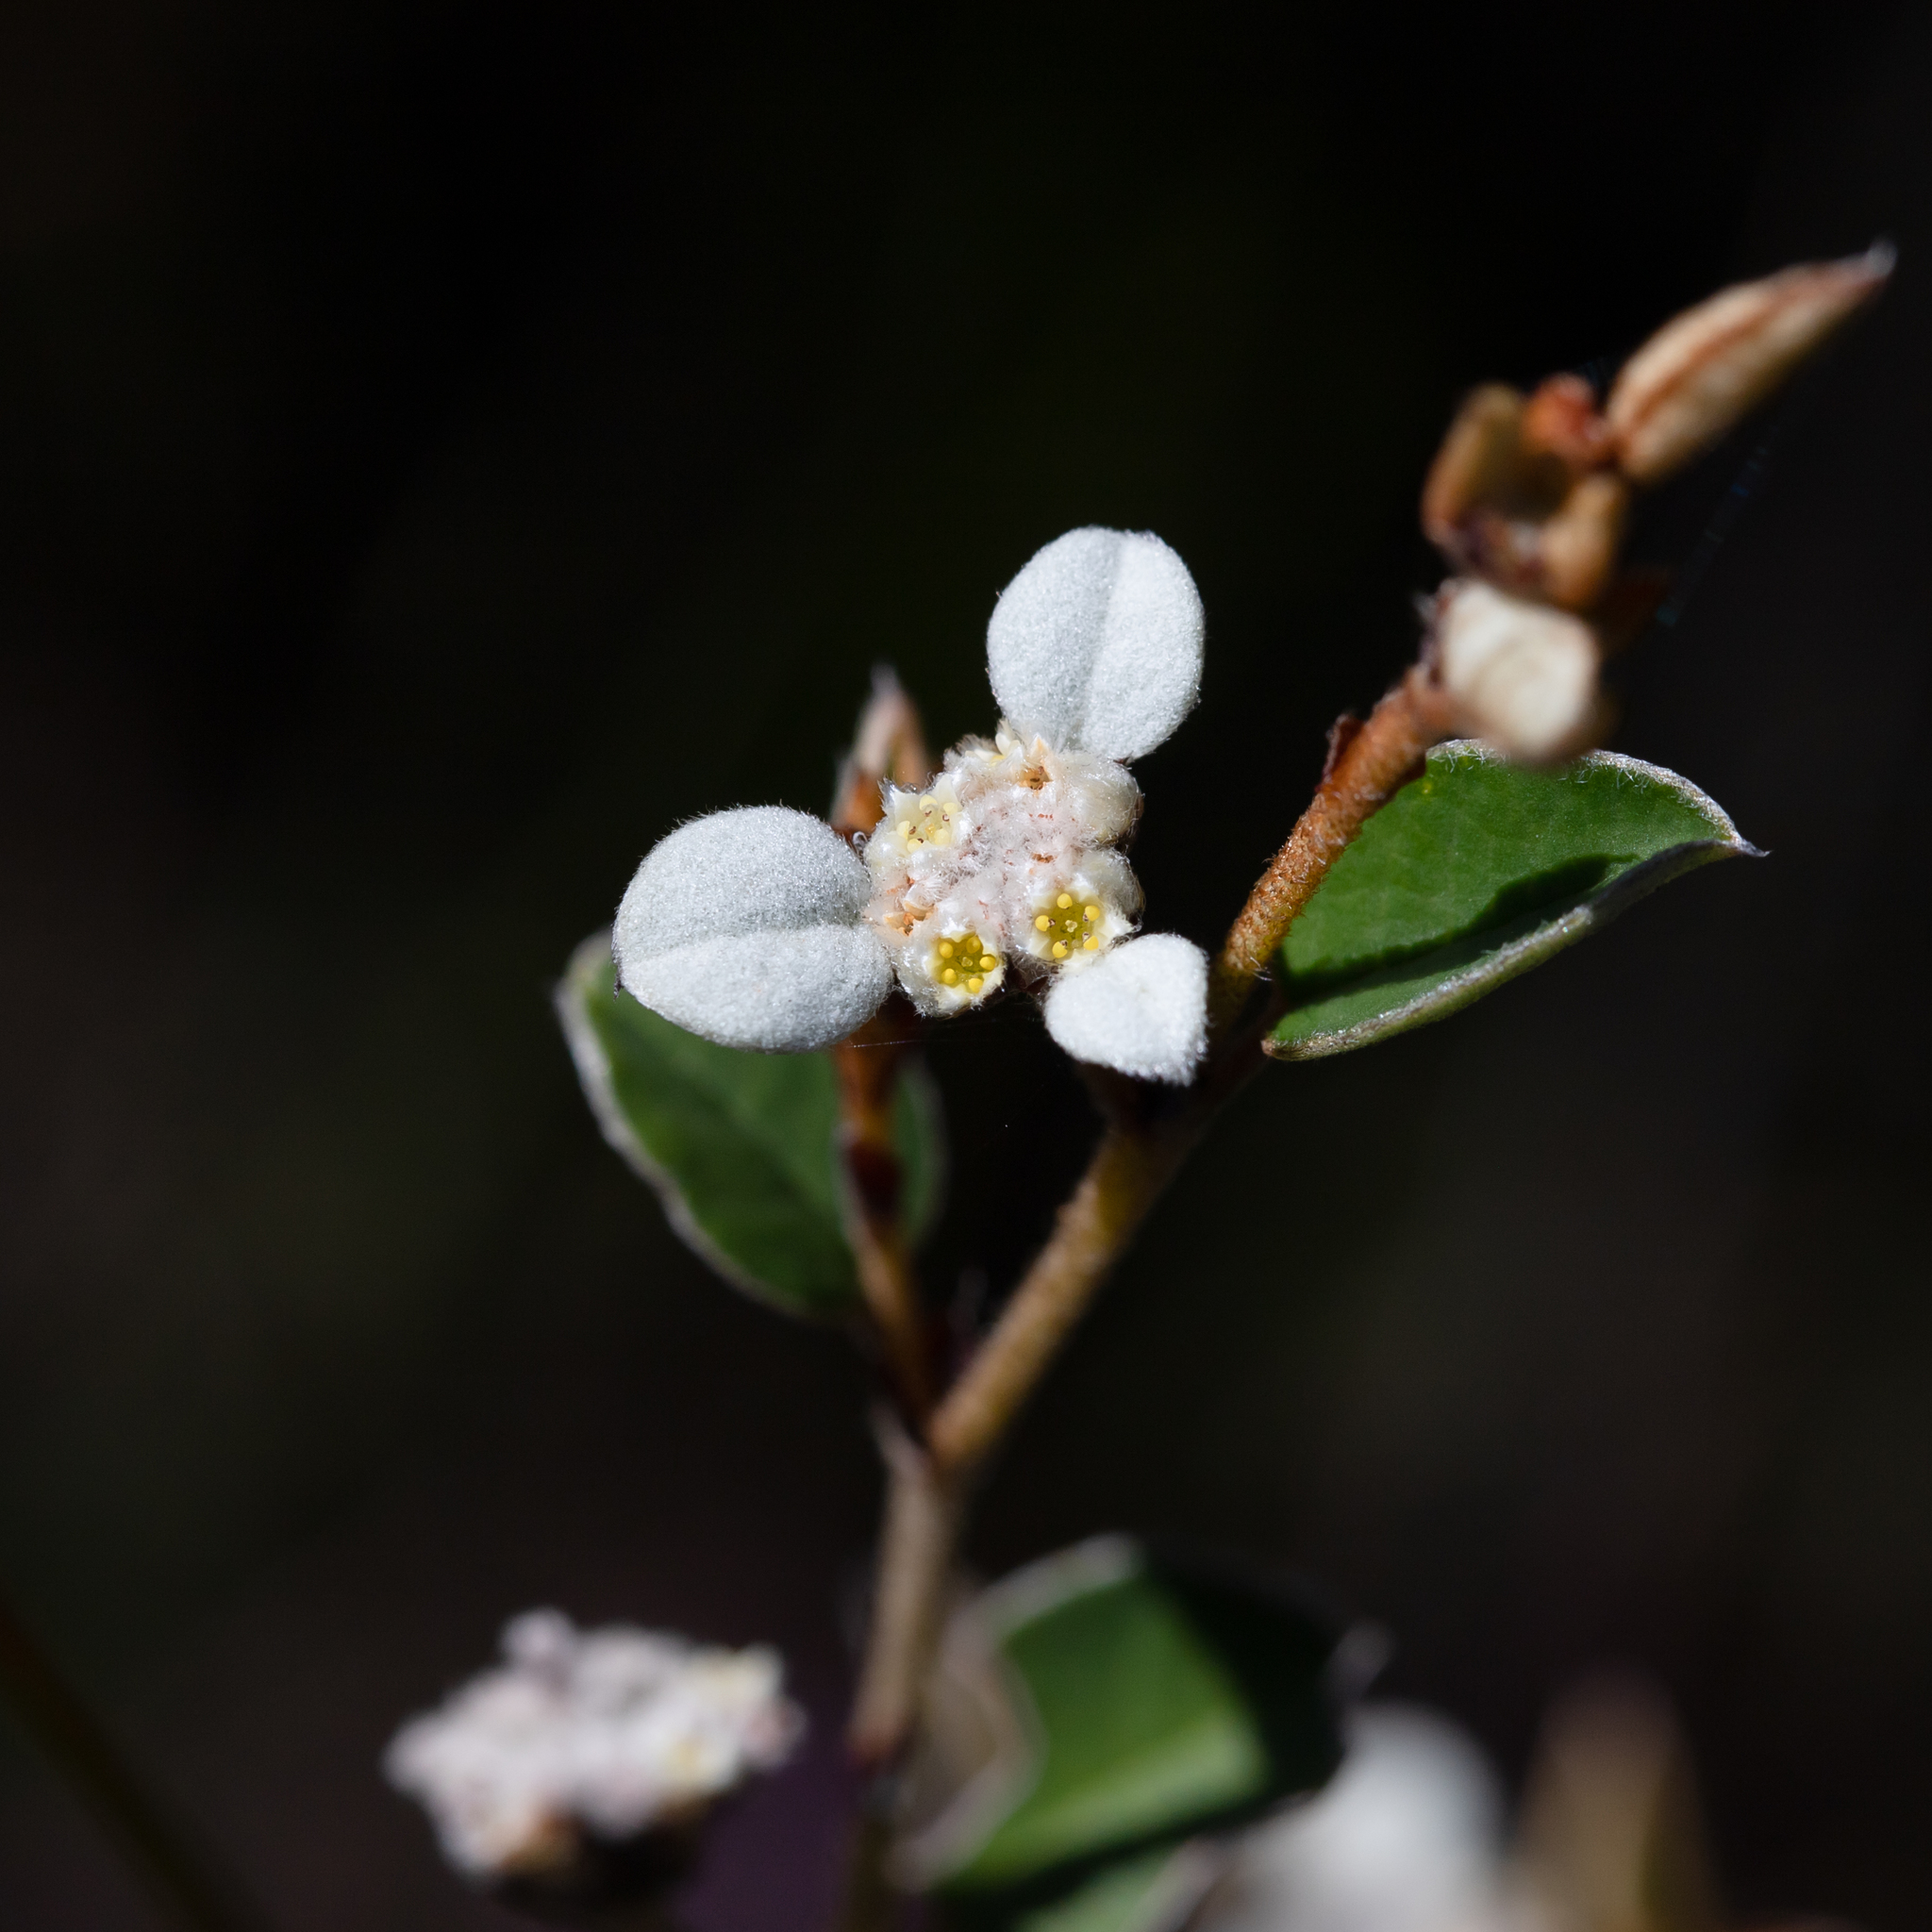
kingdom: Plantae
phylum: Tracheophyta
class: Magnoliopsida
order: Rosales
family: Rhamnaceae
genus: Spyridium
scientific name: Spyridium thymifolium
